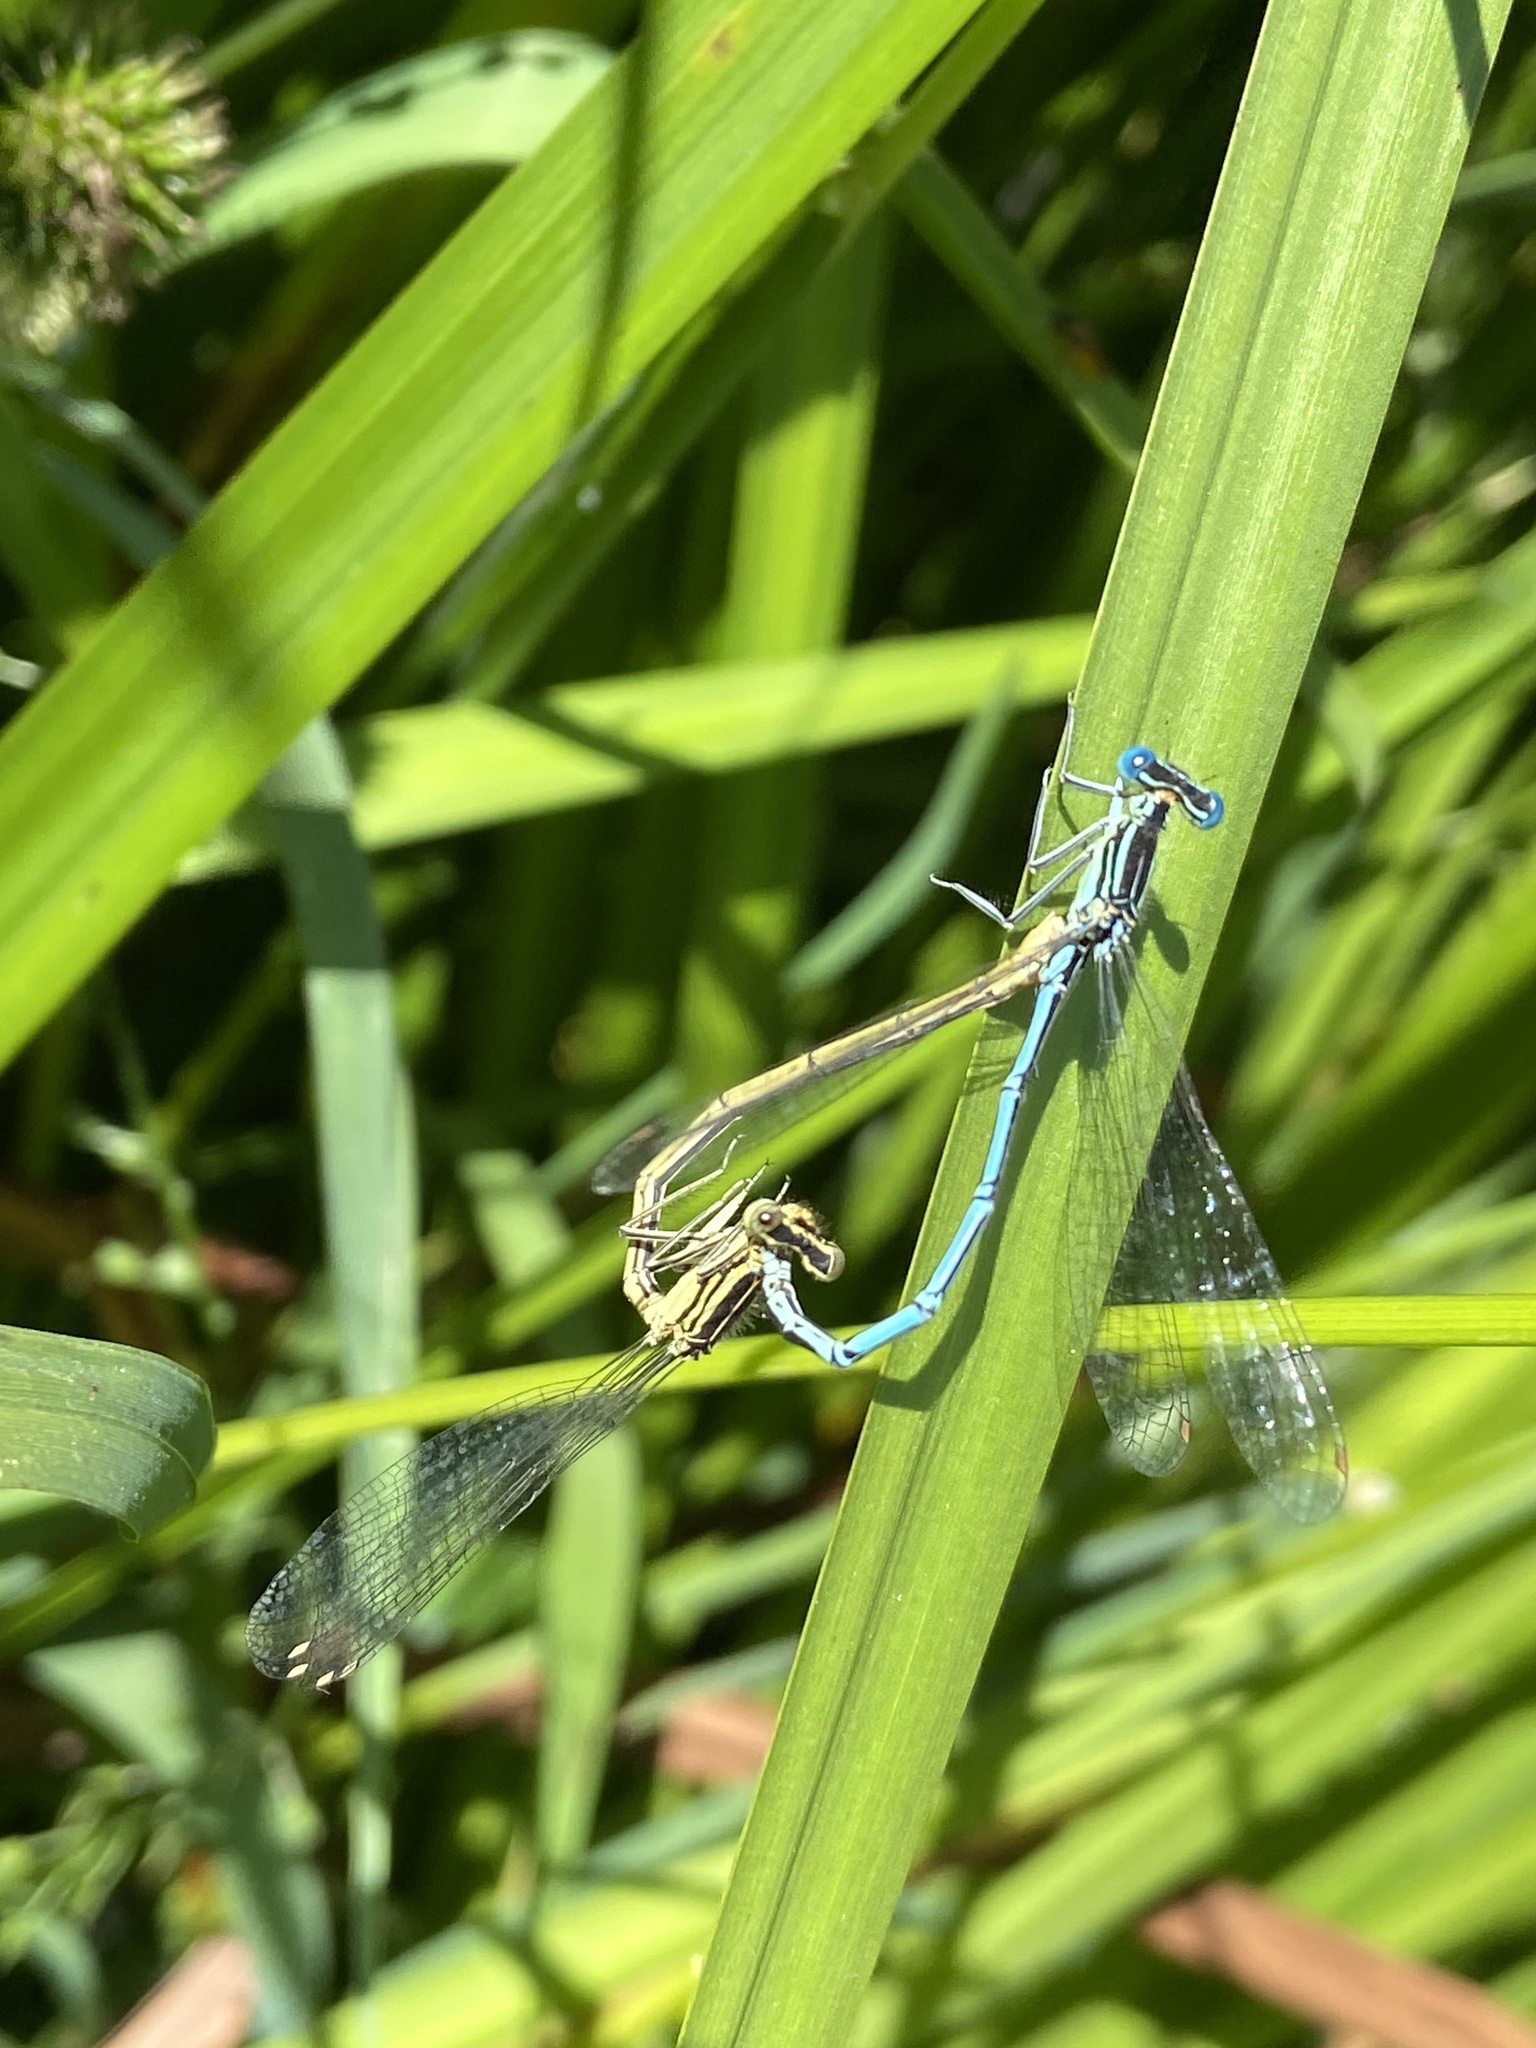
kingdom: Animalia
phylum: Arthropoda
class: Insecta
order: Odonata
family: Platycnemididae
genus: Platycnemis
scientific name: Platycnemis pennipes
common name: White-legged damselfly
